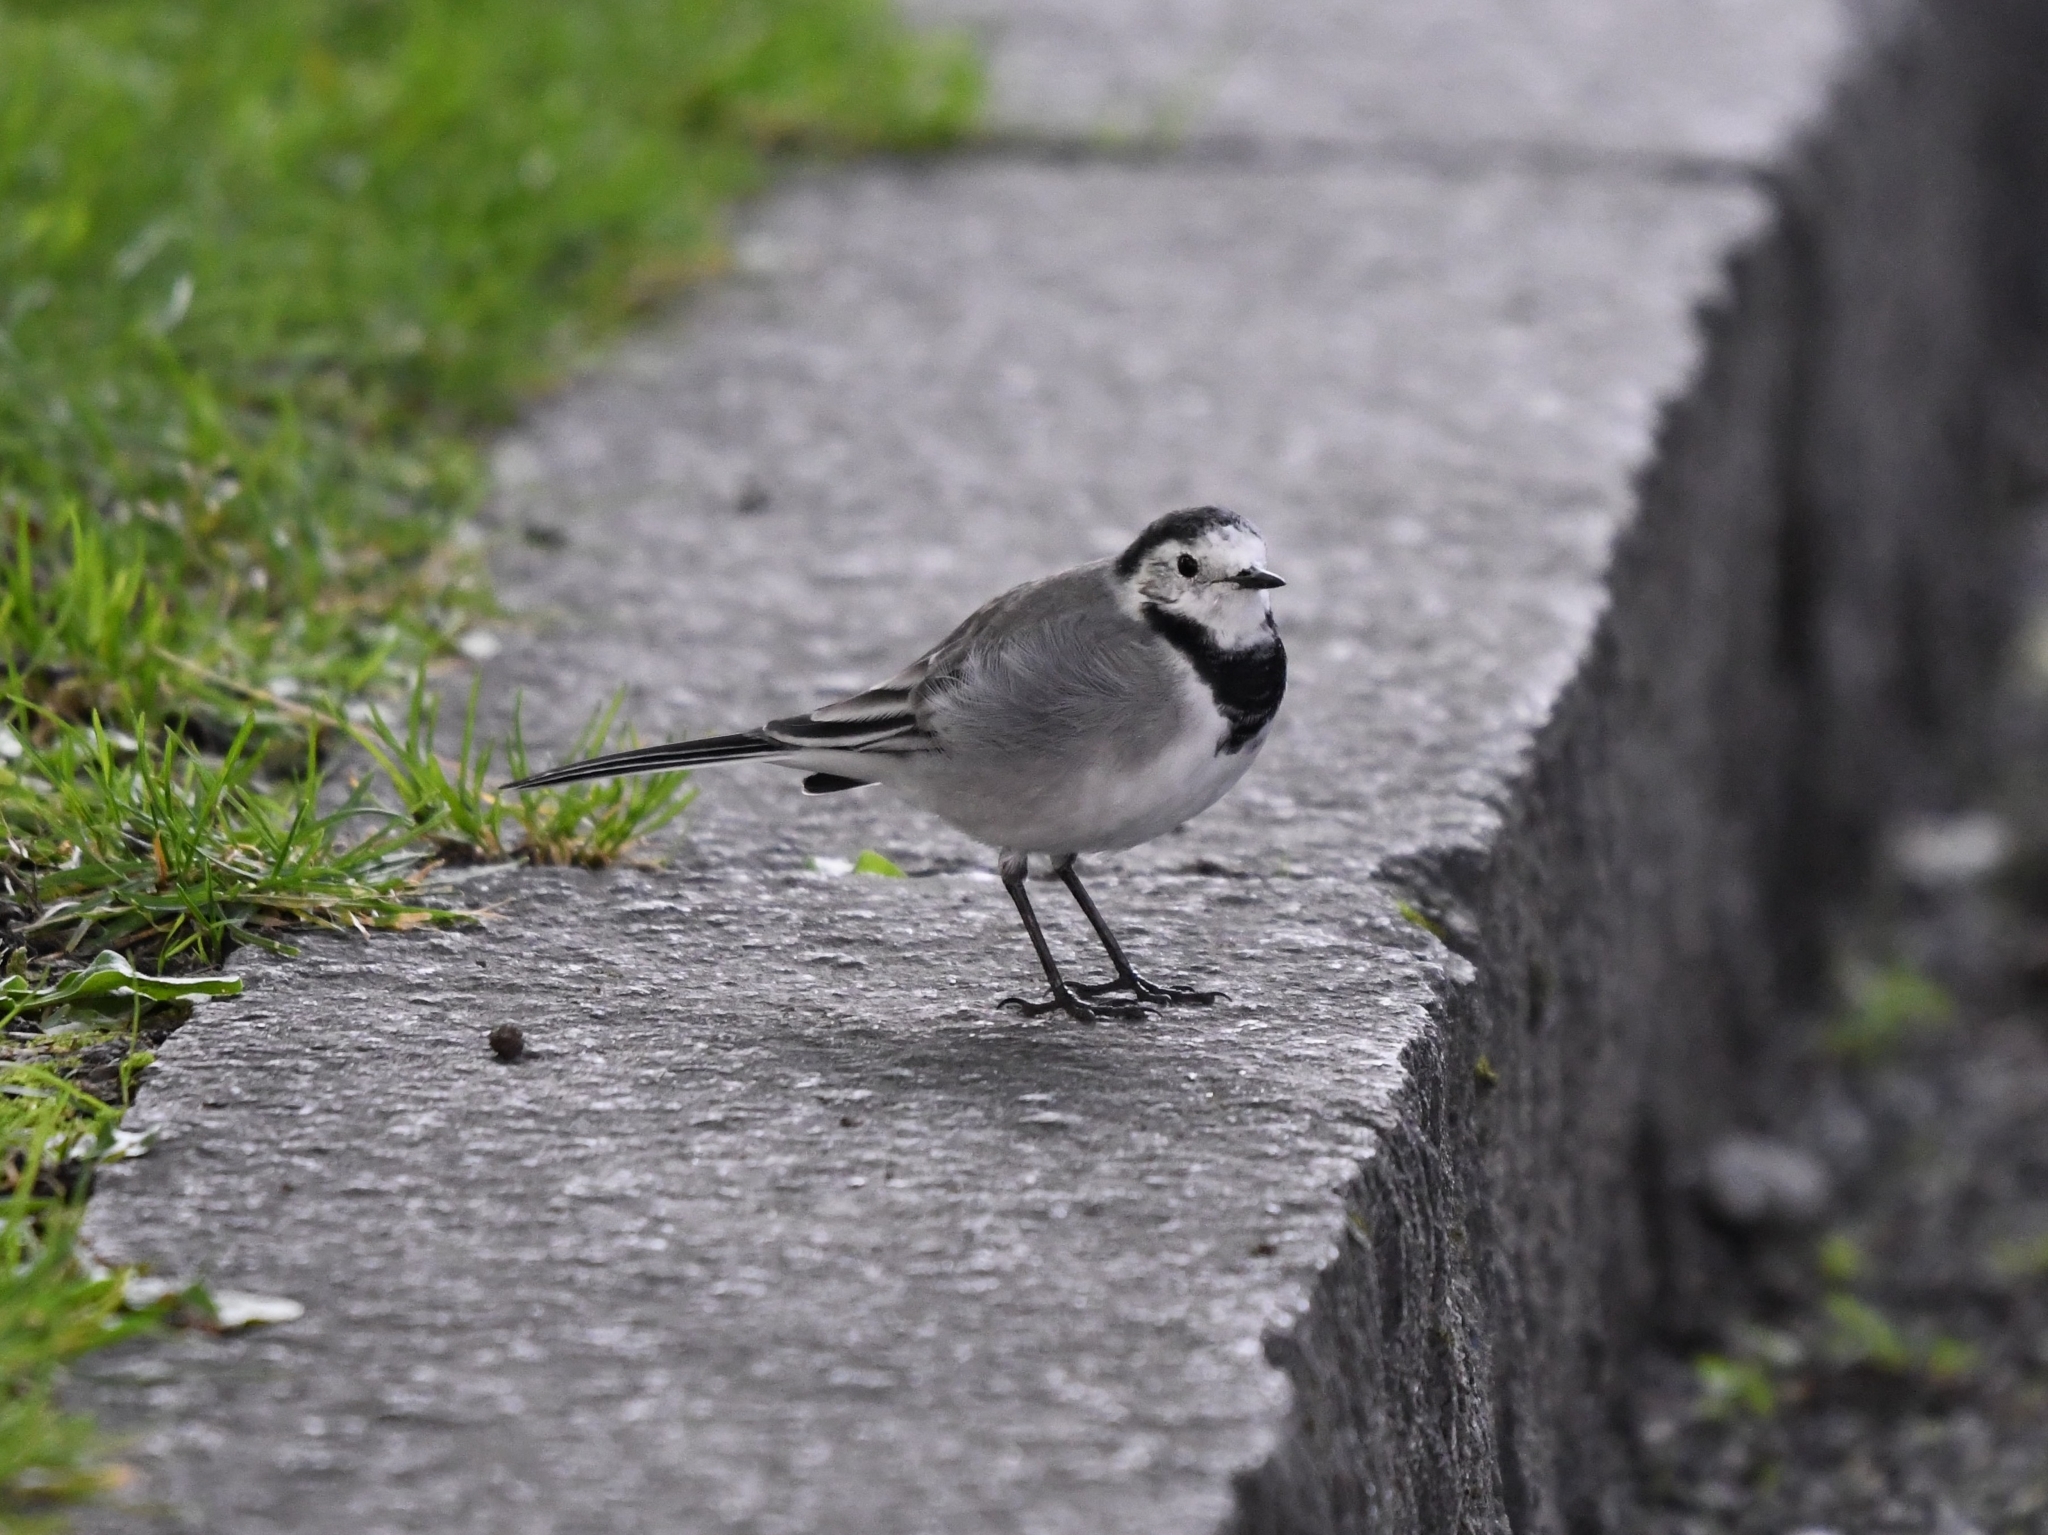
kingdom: Animalia
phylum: Chordata
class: Aves
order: Passeriformes
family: Motacillidae
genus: Motacilla
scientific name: Motacilla alba
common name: White wagtail
